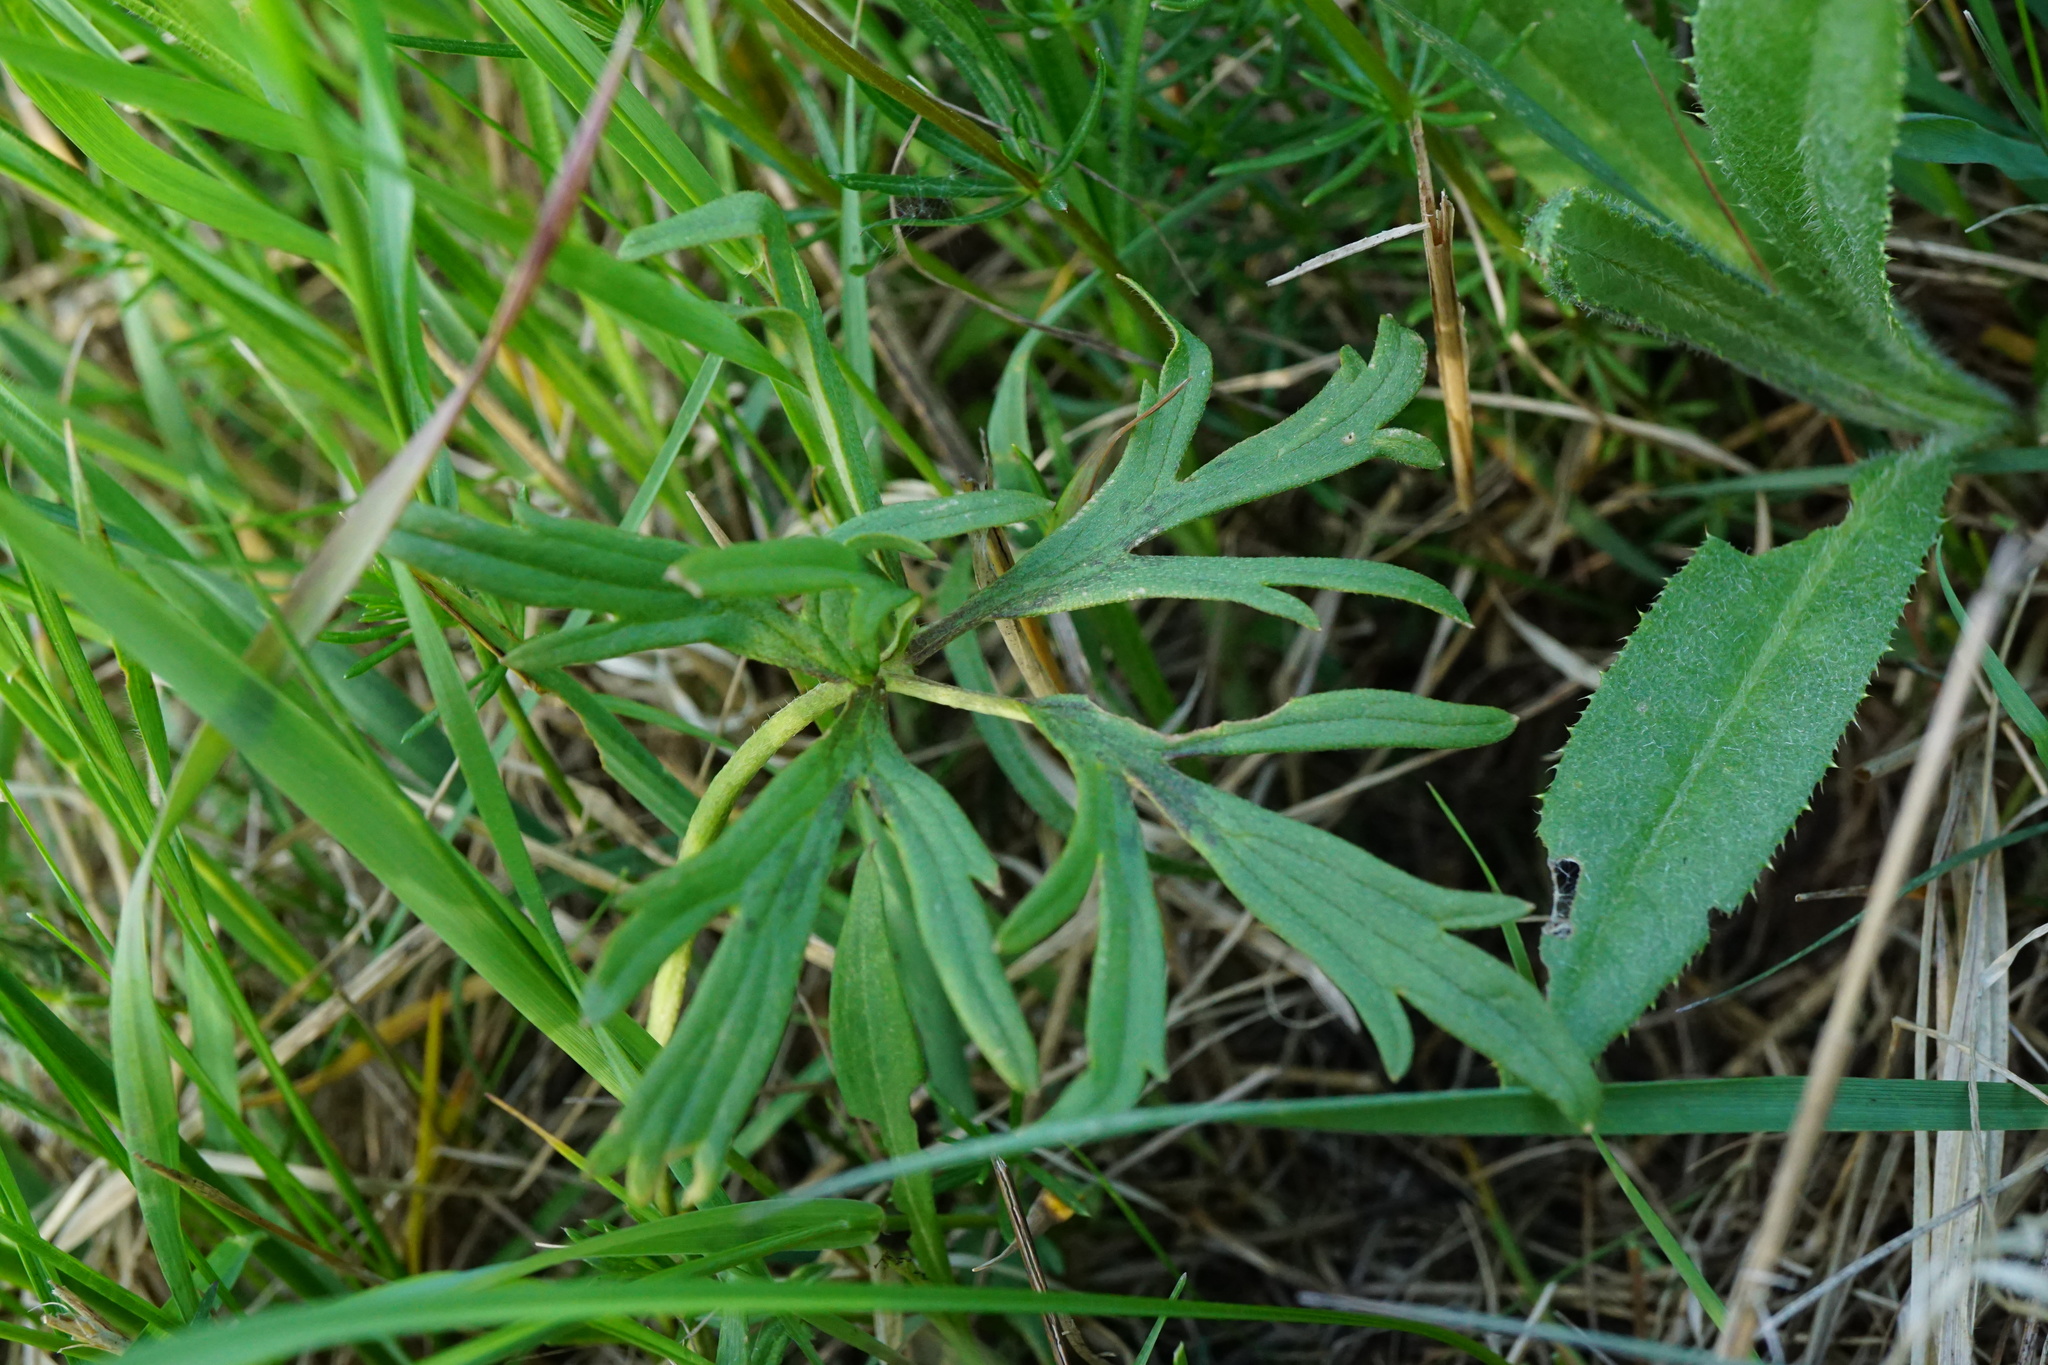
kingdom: Plantae
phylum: Tracheophyta
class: Magnoliopsida
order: Ranunculales
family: Ranunculaceae
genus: Ranunculus
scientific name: Ranunculus acris
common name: Meadow buttercup
